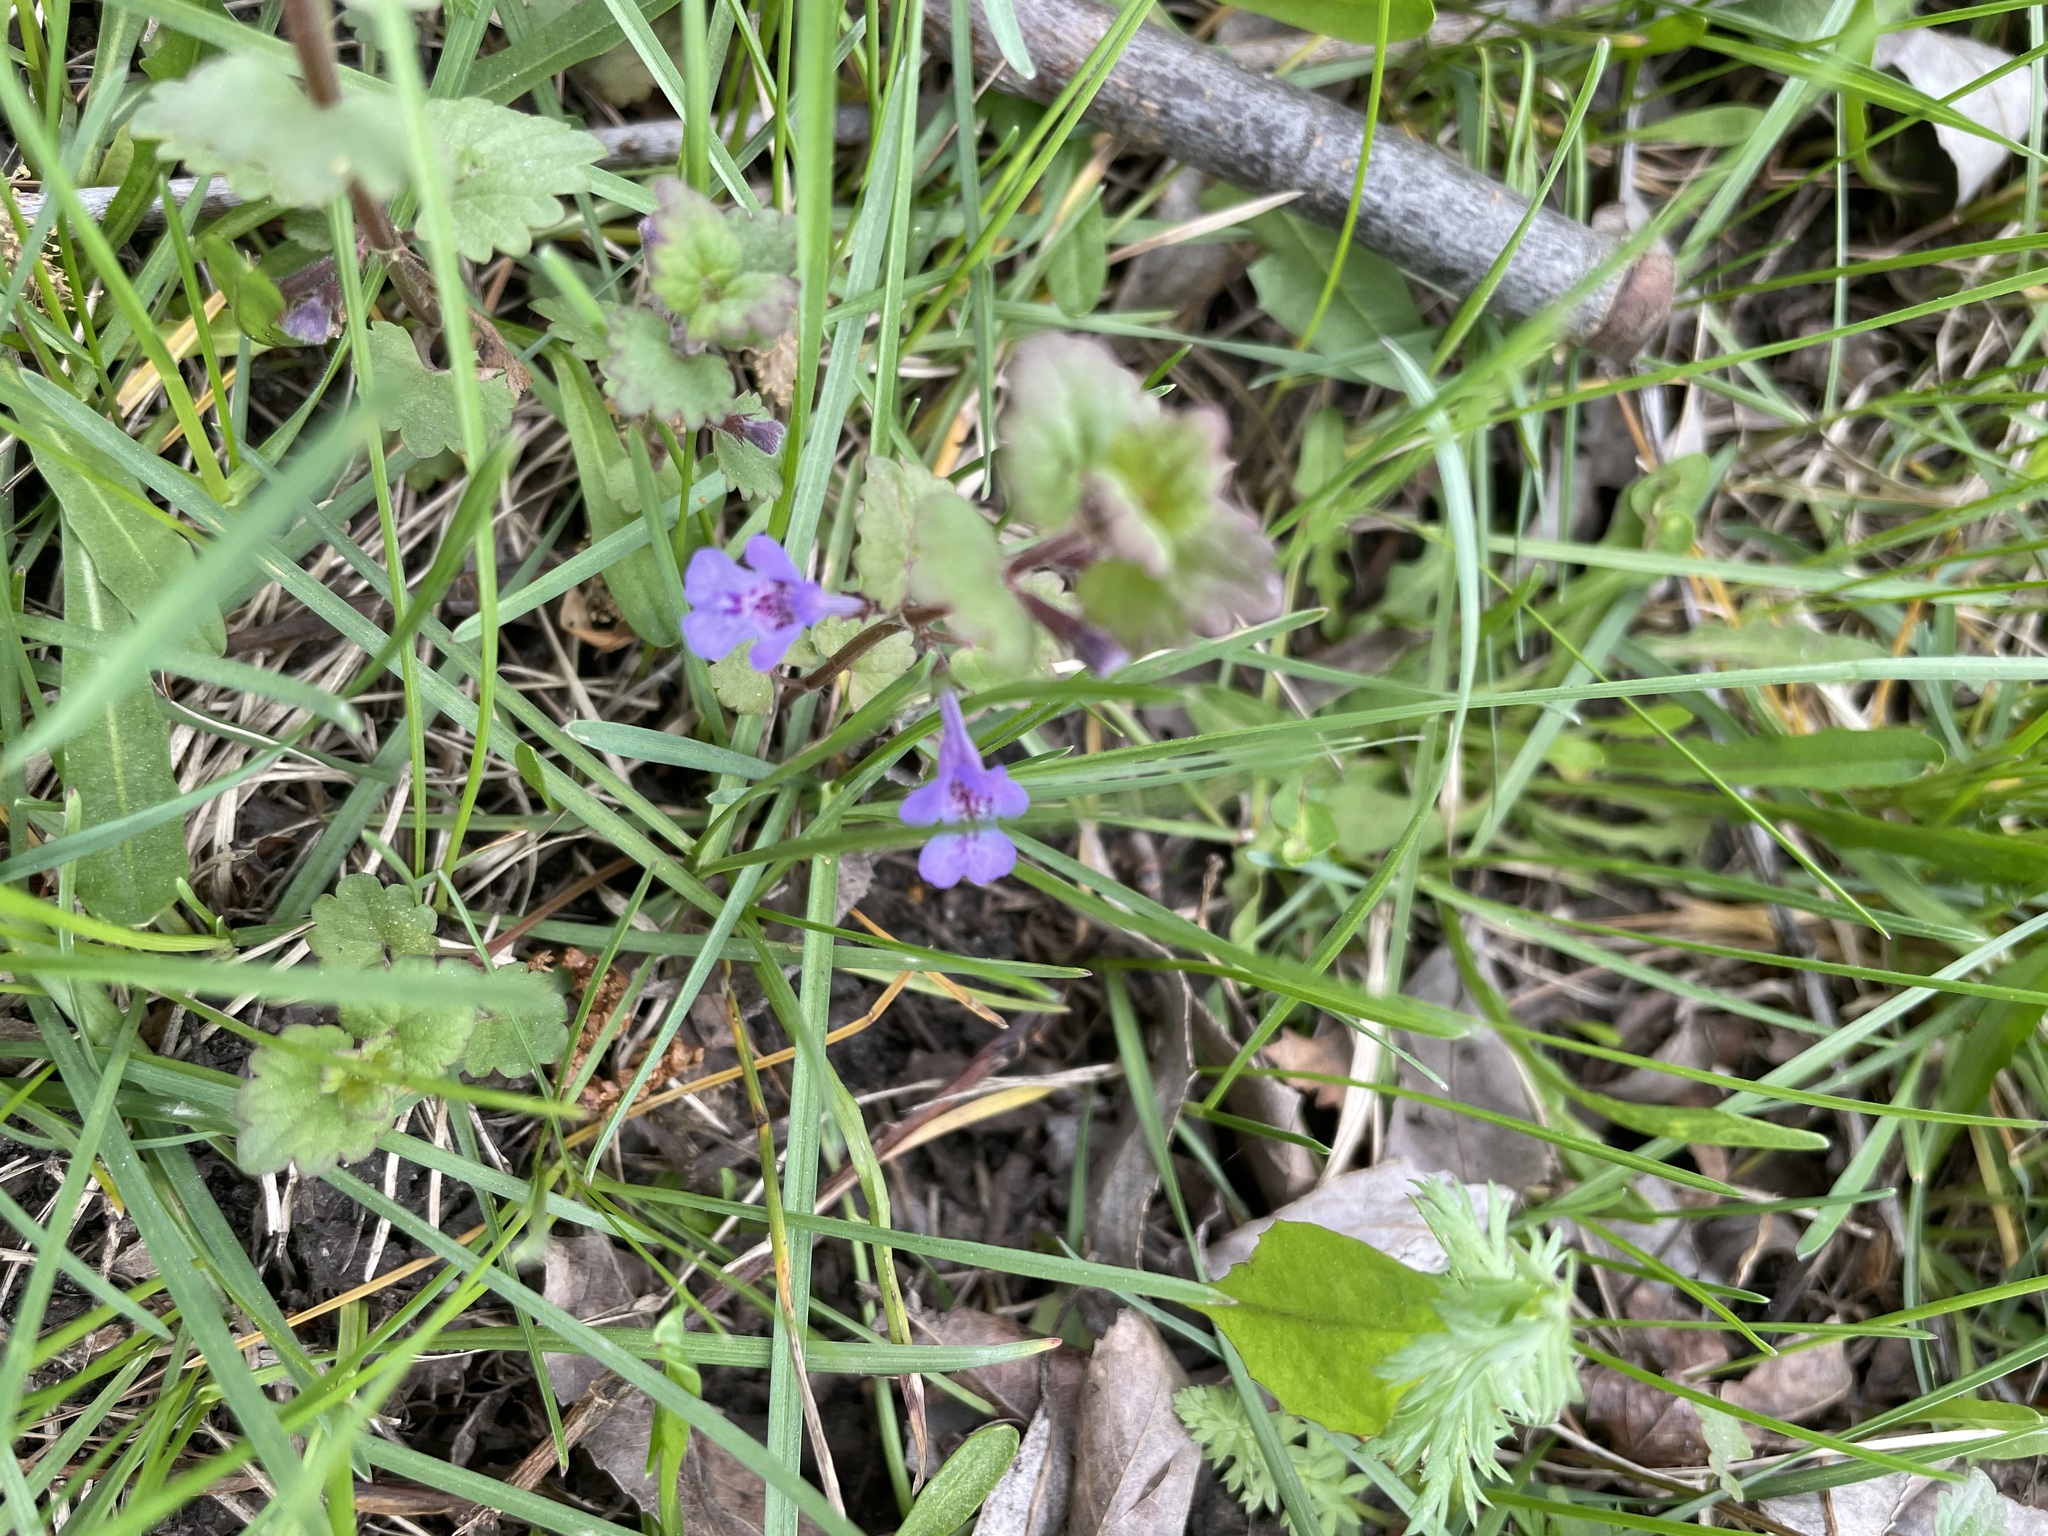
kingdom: Plantae
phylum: Tracheophyta
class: Magnoliopsida
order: Lamiales
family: Lamiaceae
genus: Glechoma
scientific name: Glechoma hederacea
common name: Ground ivy
